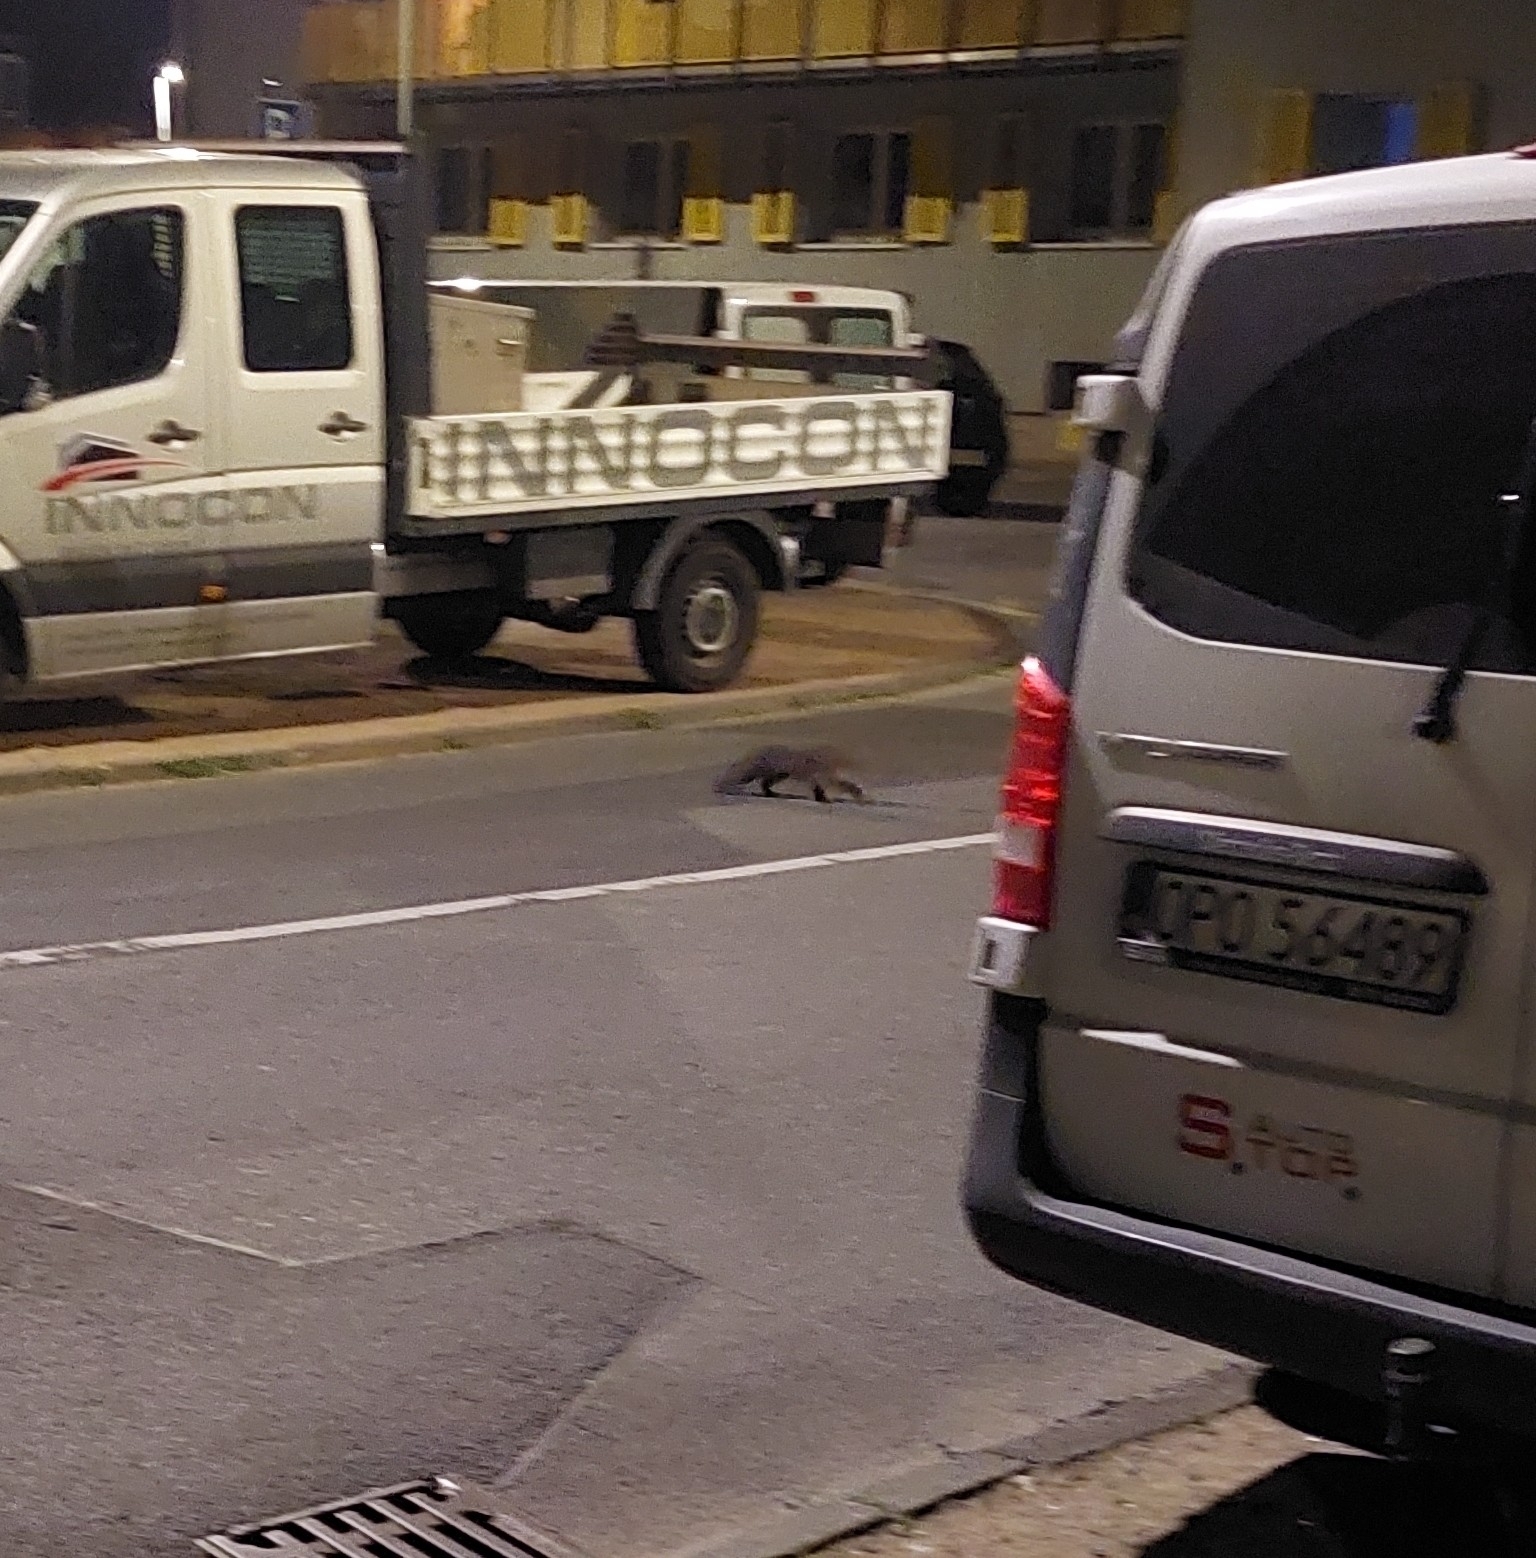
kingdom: Animalia
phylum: Chordata
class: Mammalia
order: Carnivora
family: Mustelidae
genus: Martes
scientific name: Martes foina
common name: Beech marten
